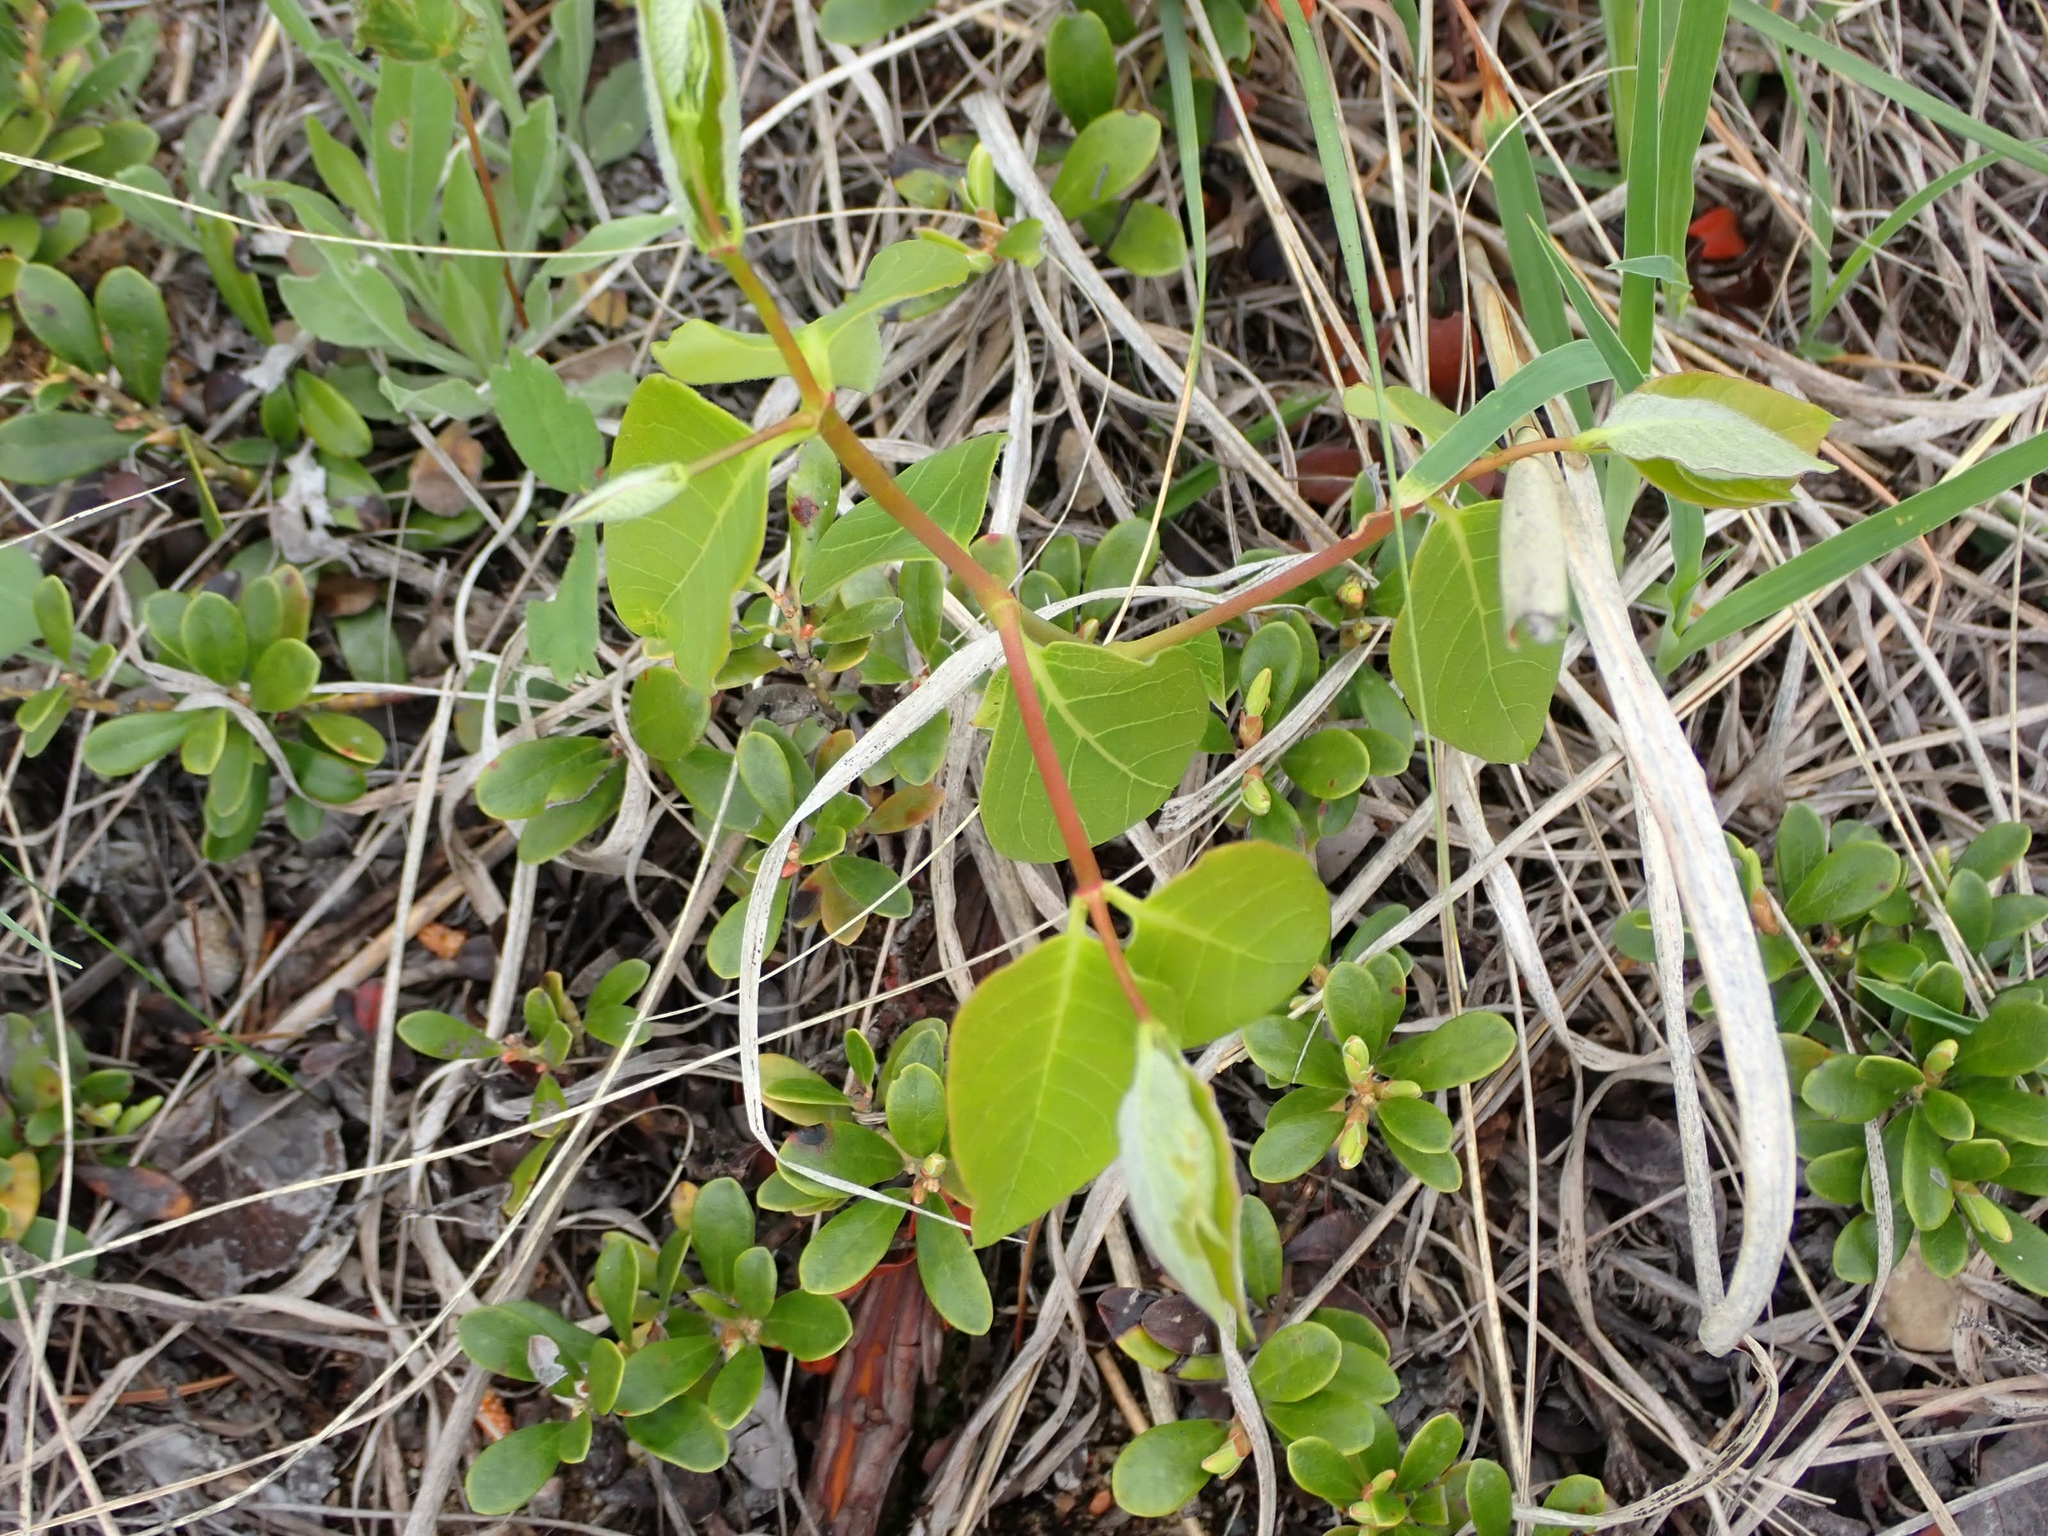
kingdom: Plantae
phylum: Tracheophyta
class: Magnoliopsida
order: Gentianales
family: Apocynaceae
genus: Apocynum
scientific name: Apocynum androsaemifolium
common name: Spreading dogbane
